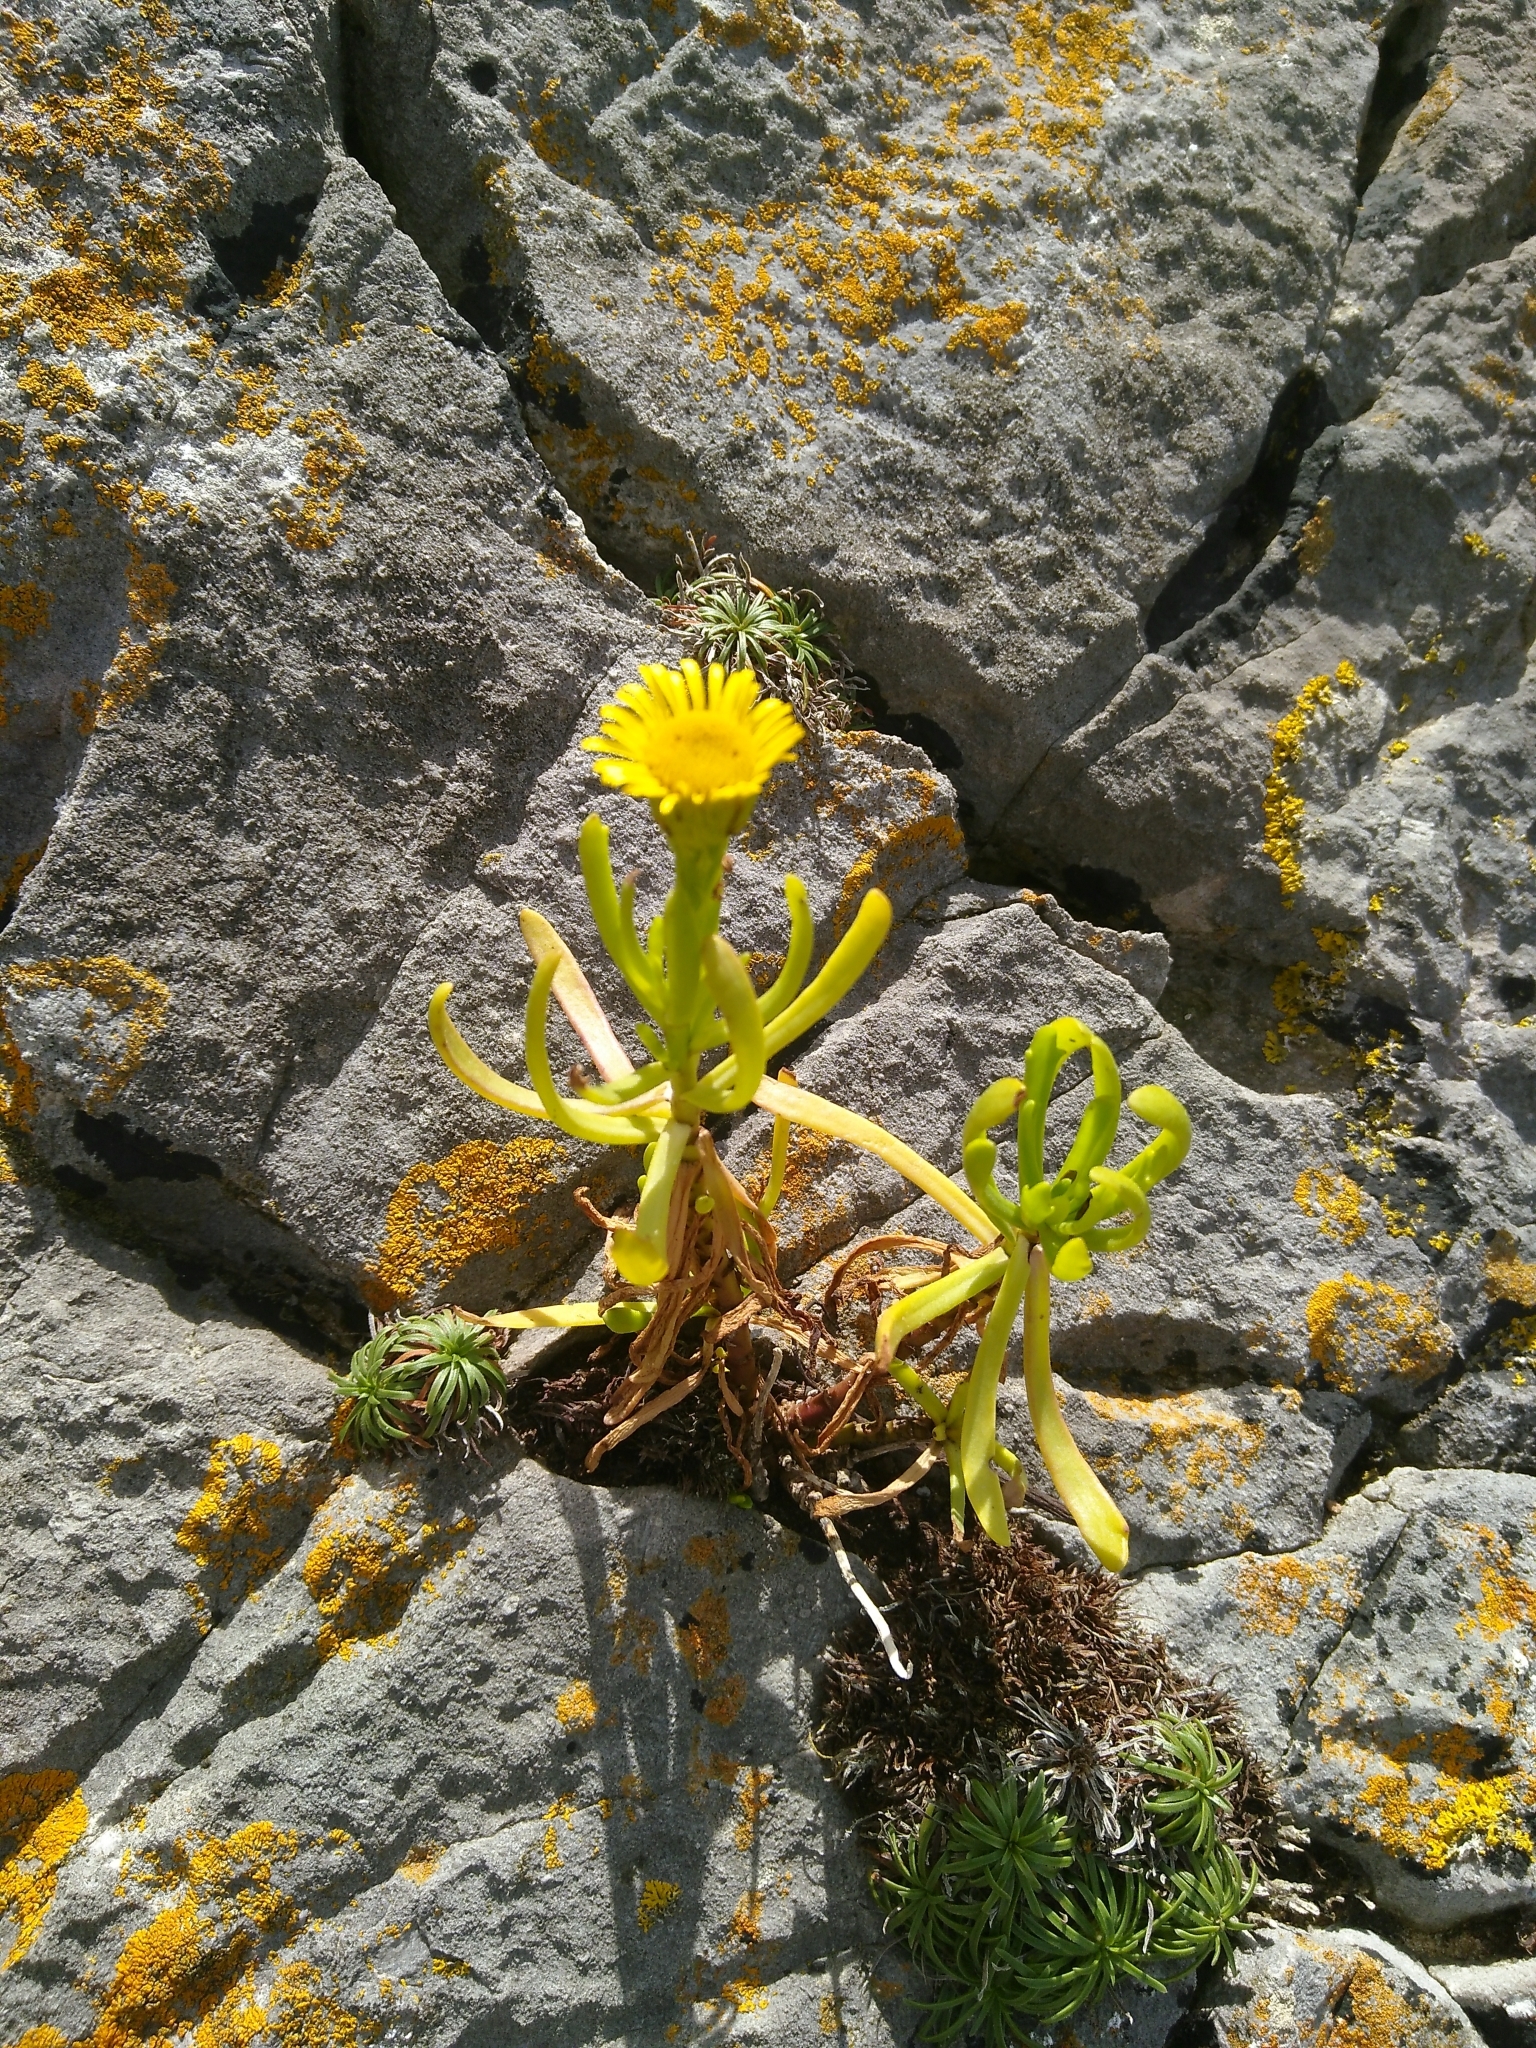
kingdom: Plantae
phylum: Tracheophyta
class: Magnoliopsida
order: Asterales
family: Asteraceae
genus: Limbarda
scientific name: Limbarda crithmoides
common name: Golden samphire
